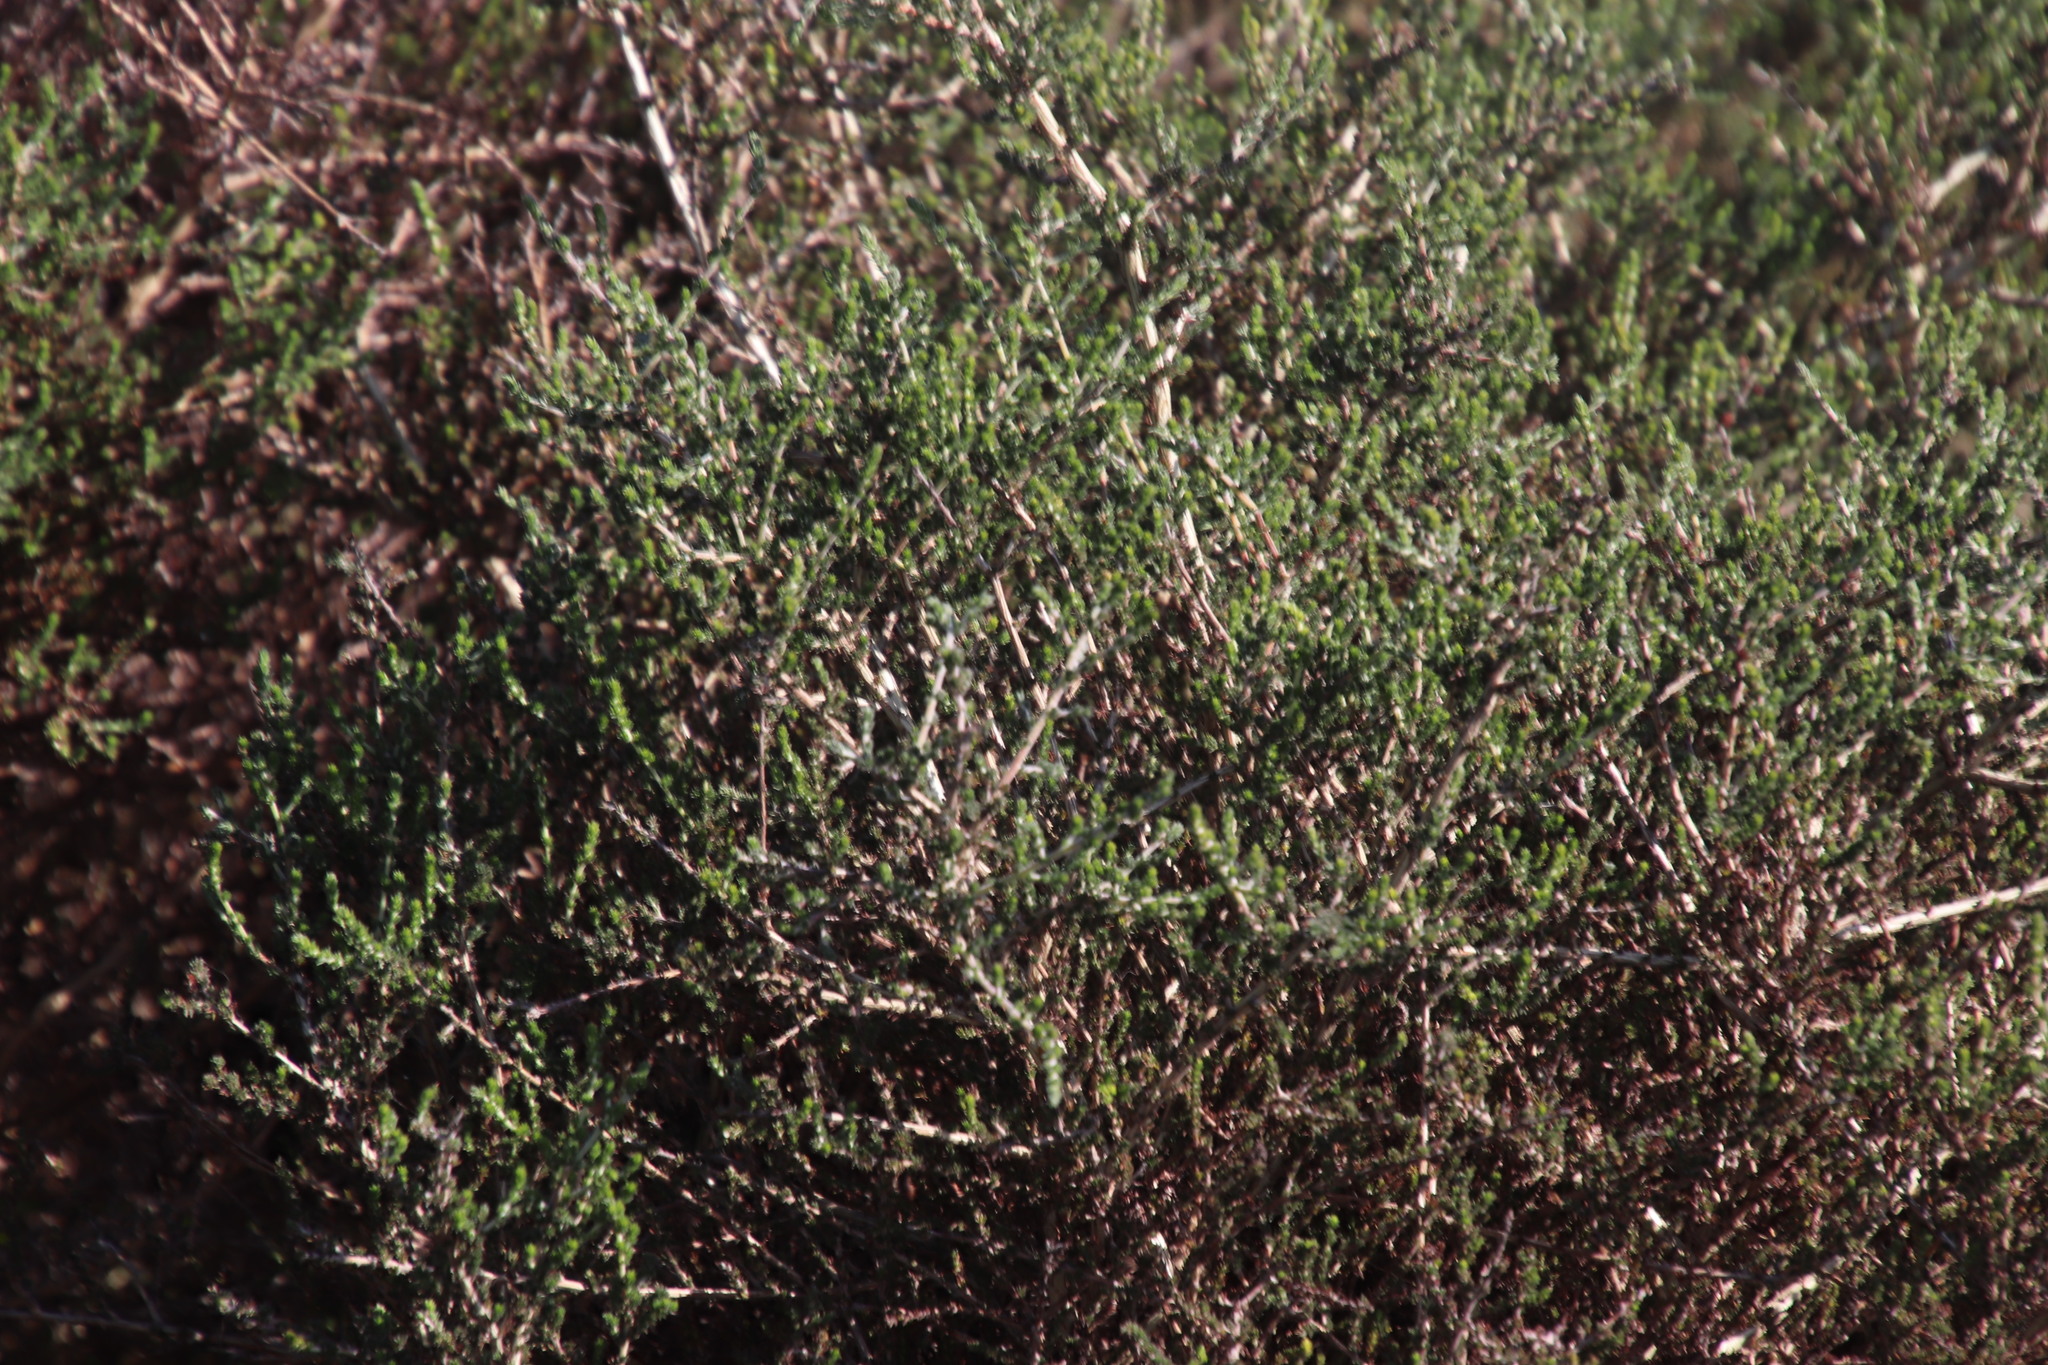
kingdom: Plantae
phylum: Tracheophyta
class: Magnoliopsida
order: Fabales
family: Fabaceae
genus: Aspalathus
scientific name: Aspalathus hispida
